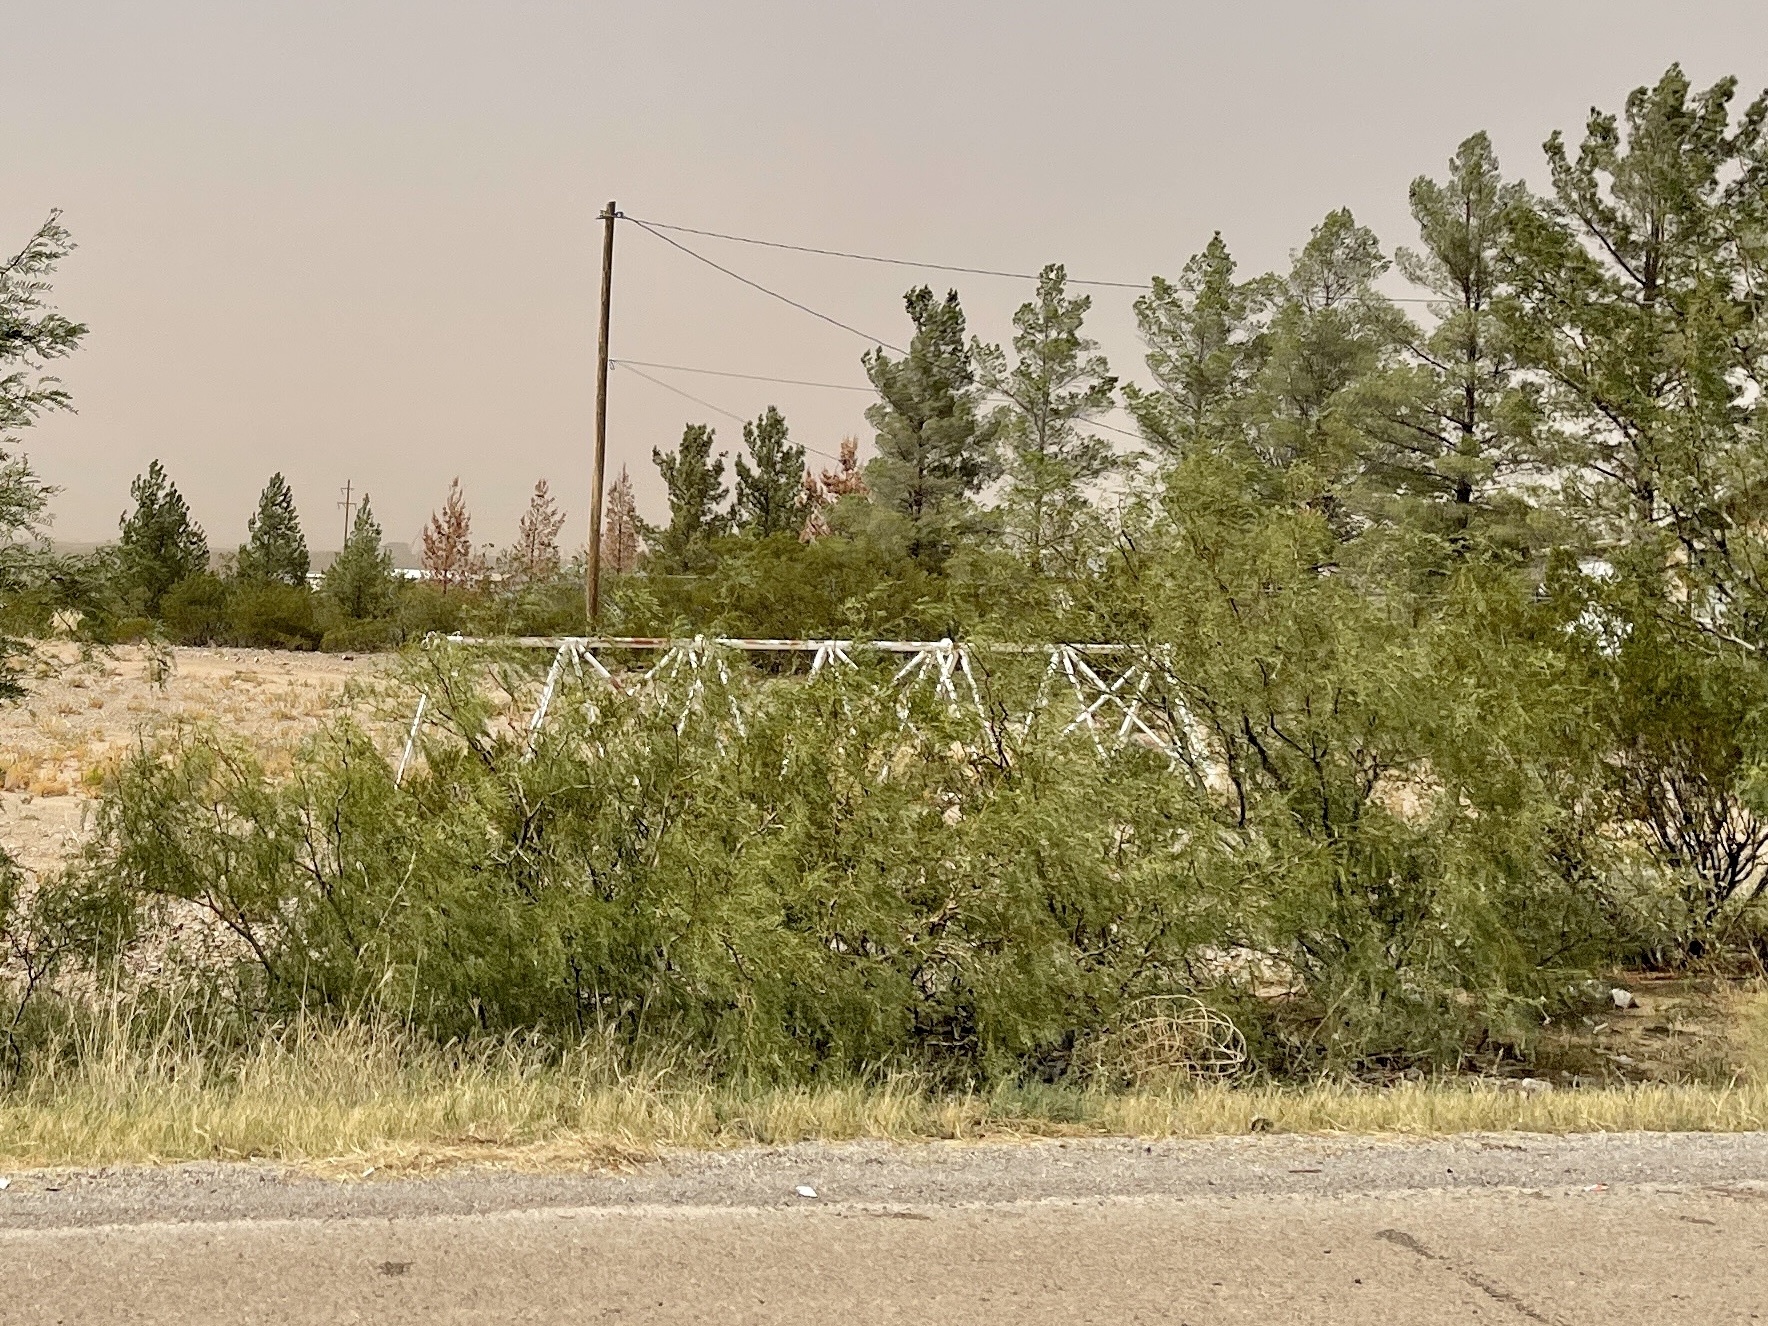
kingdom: Plantae
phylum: Tracheophyta
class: Magnoliopsida
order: Zygophyllales
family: Zygophyllaceae
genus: Larrea
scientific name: Larrea tridentata
